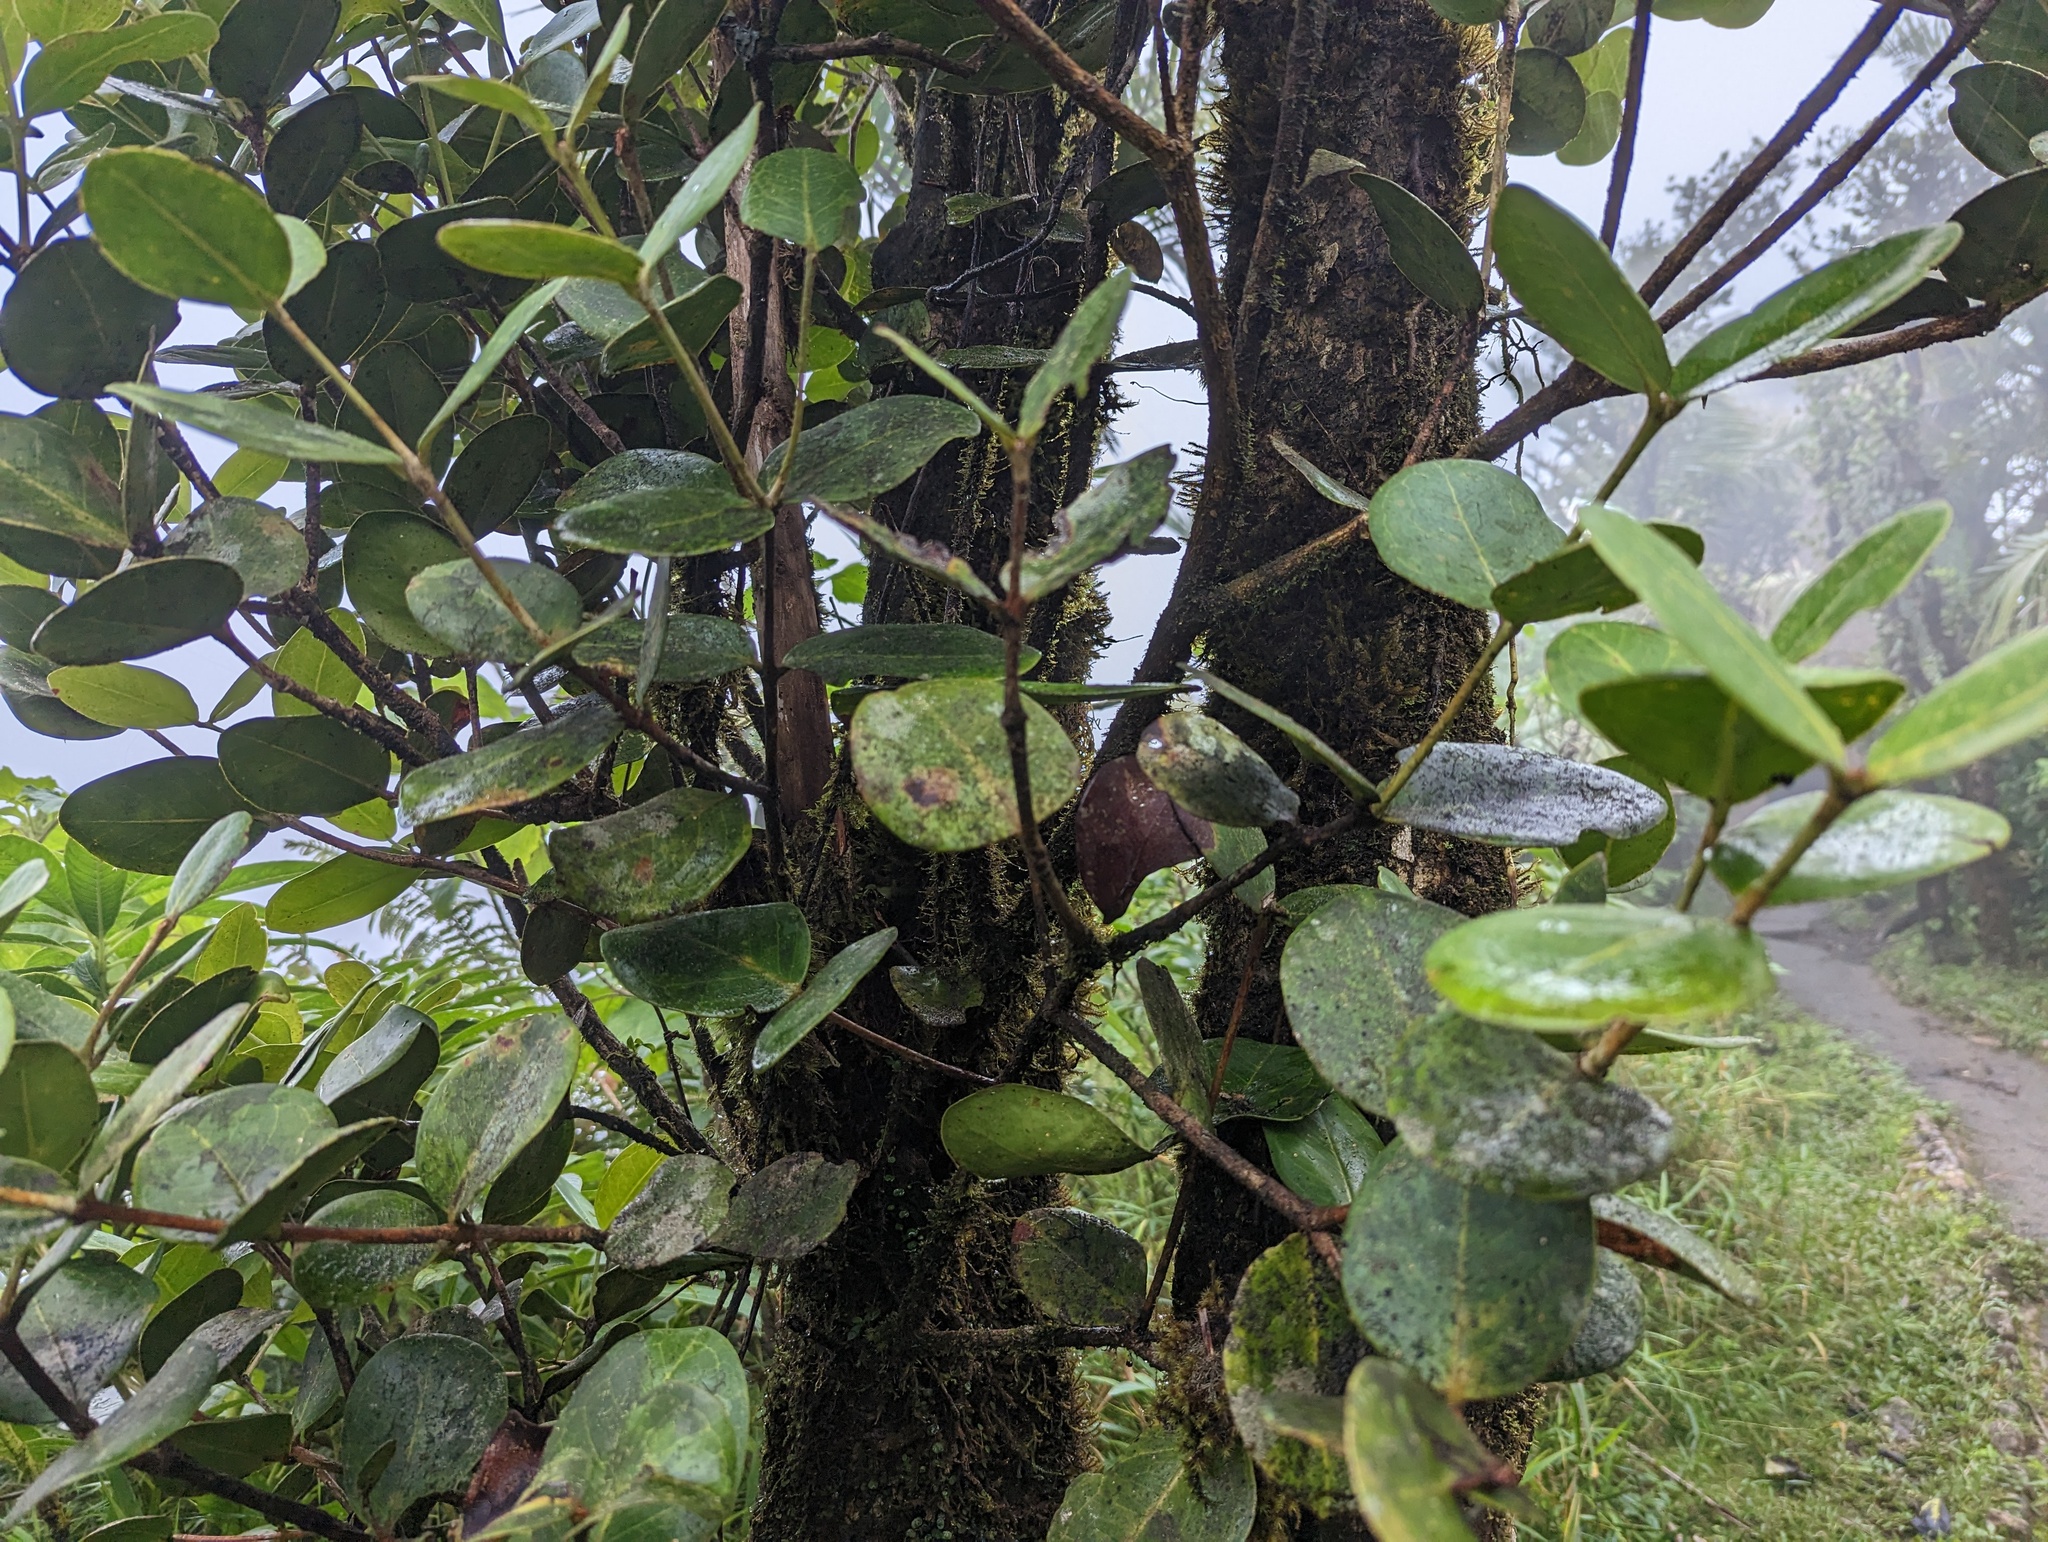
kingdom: Plantae
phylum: Tracheophyta
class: Magnoliopsida
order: Myrtales
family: Myrtaceae
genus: Eugenia
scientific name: Eugenia borinquensis
